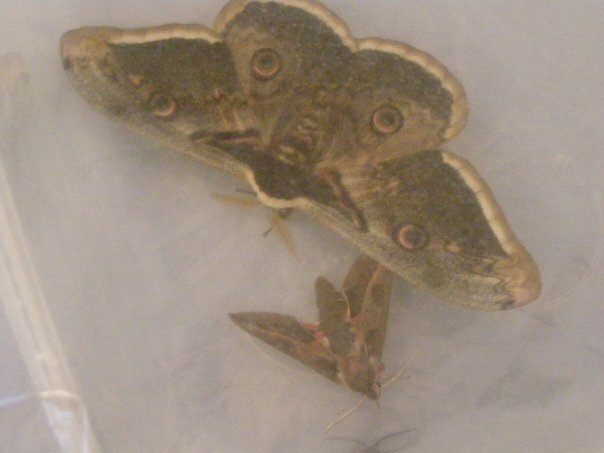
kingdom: Animalia
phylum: Arthropoda
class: Insecta
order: Lepidoptera
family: Sphingidae
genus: Hyles
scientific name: Hyles euphorbiae
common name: Spurge hawk-moth
